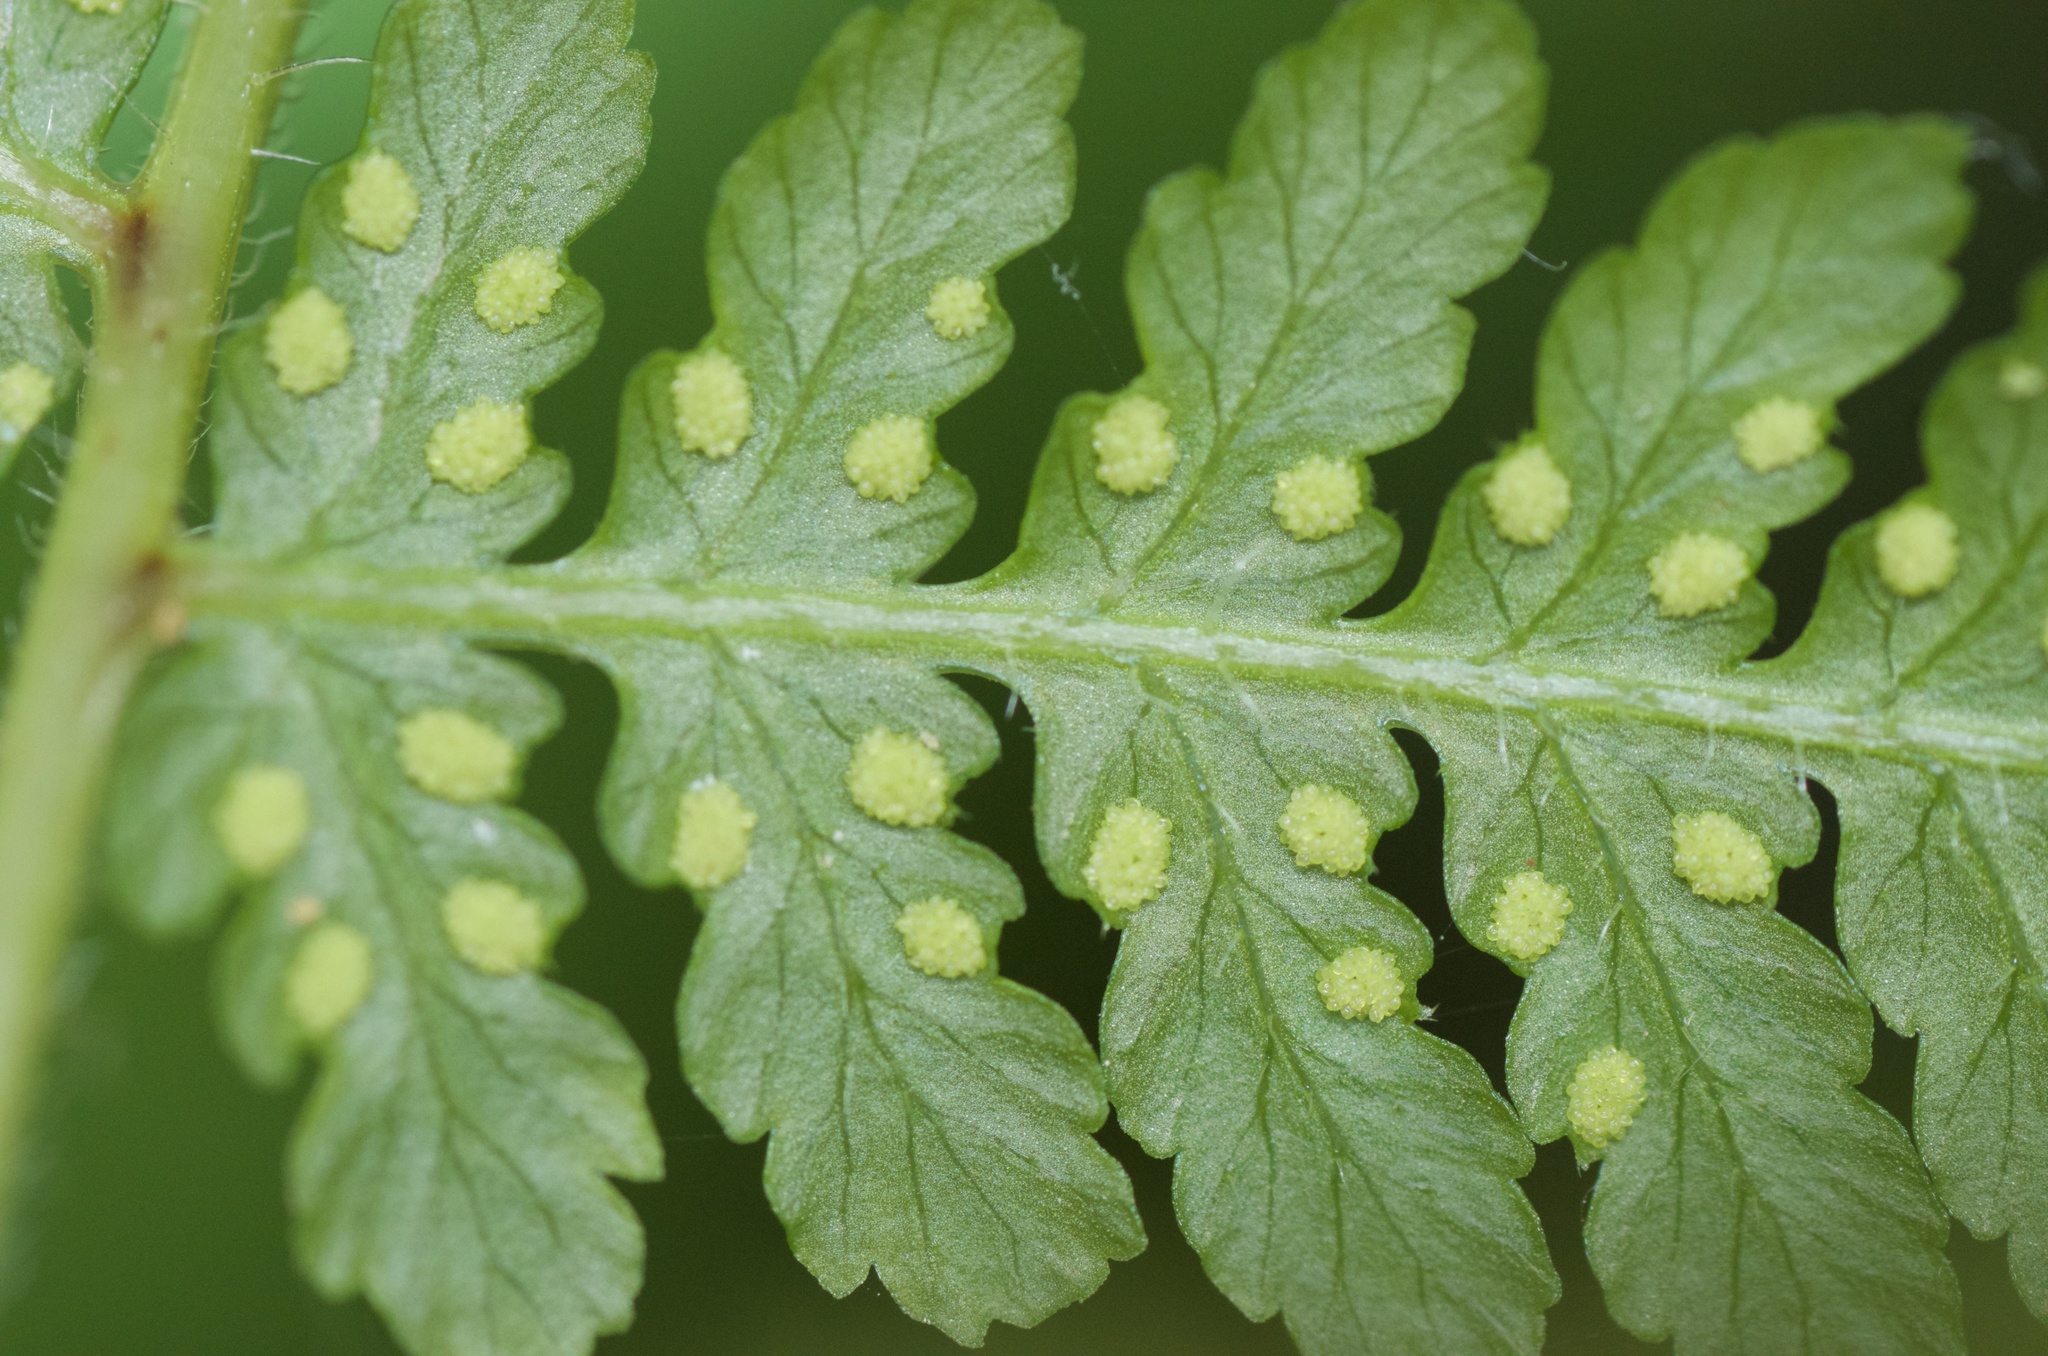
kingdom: Plantae
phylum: Tracheophyta
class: Polypodiopsida
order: Polypodiales
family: Dennstaedtiaceae
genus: Hypolepis
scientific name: Hypolepis ambigua
